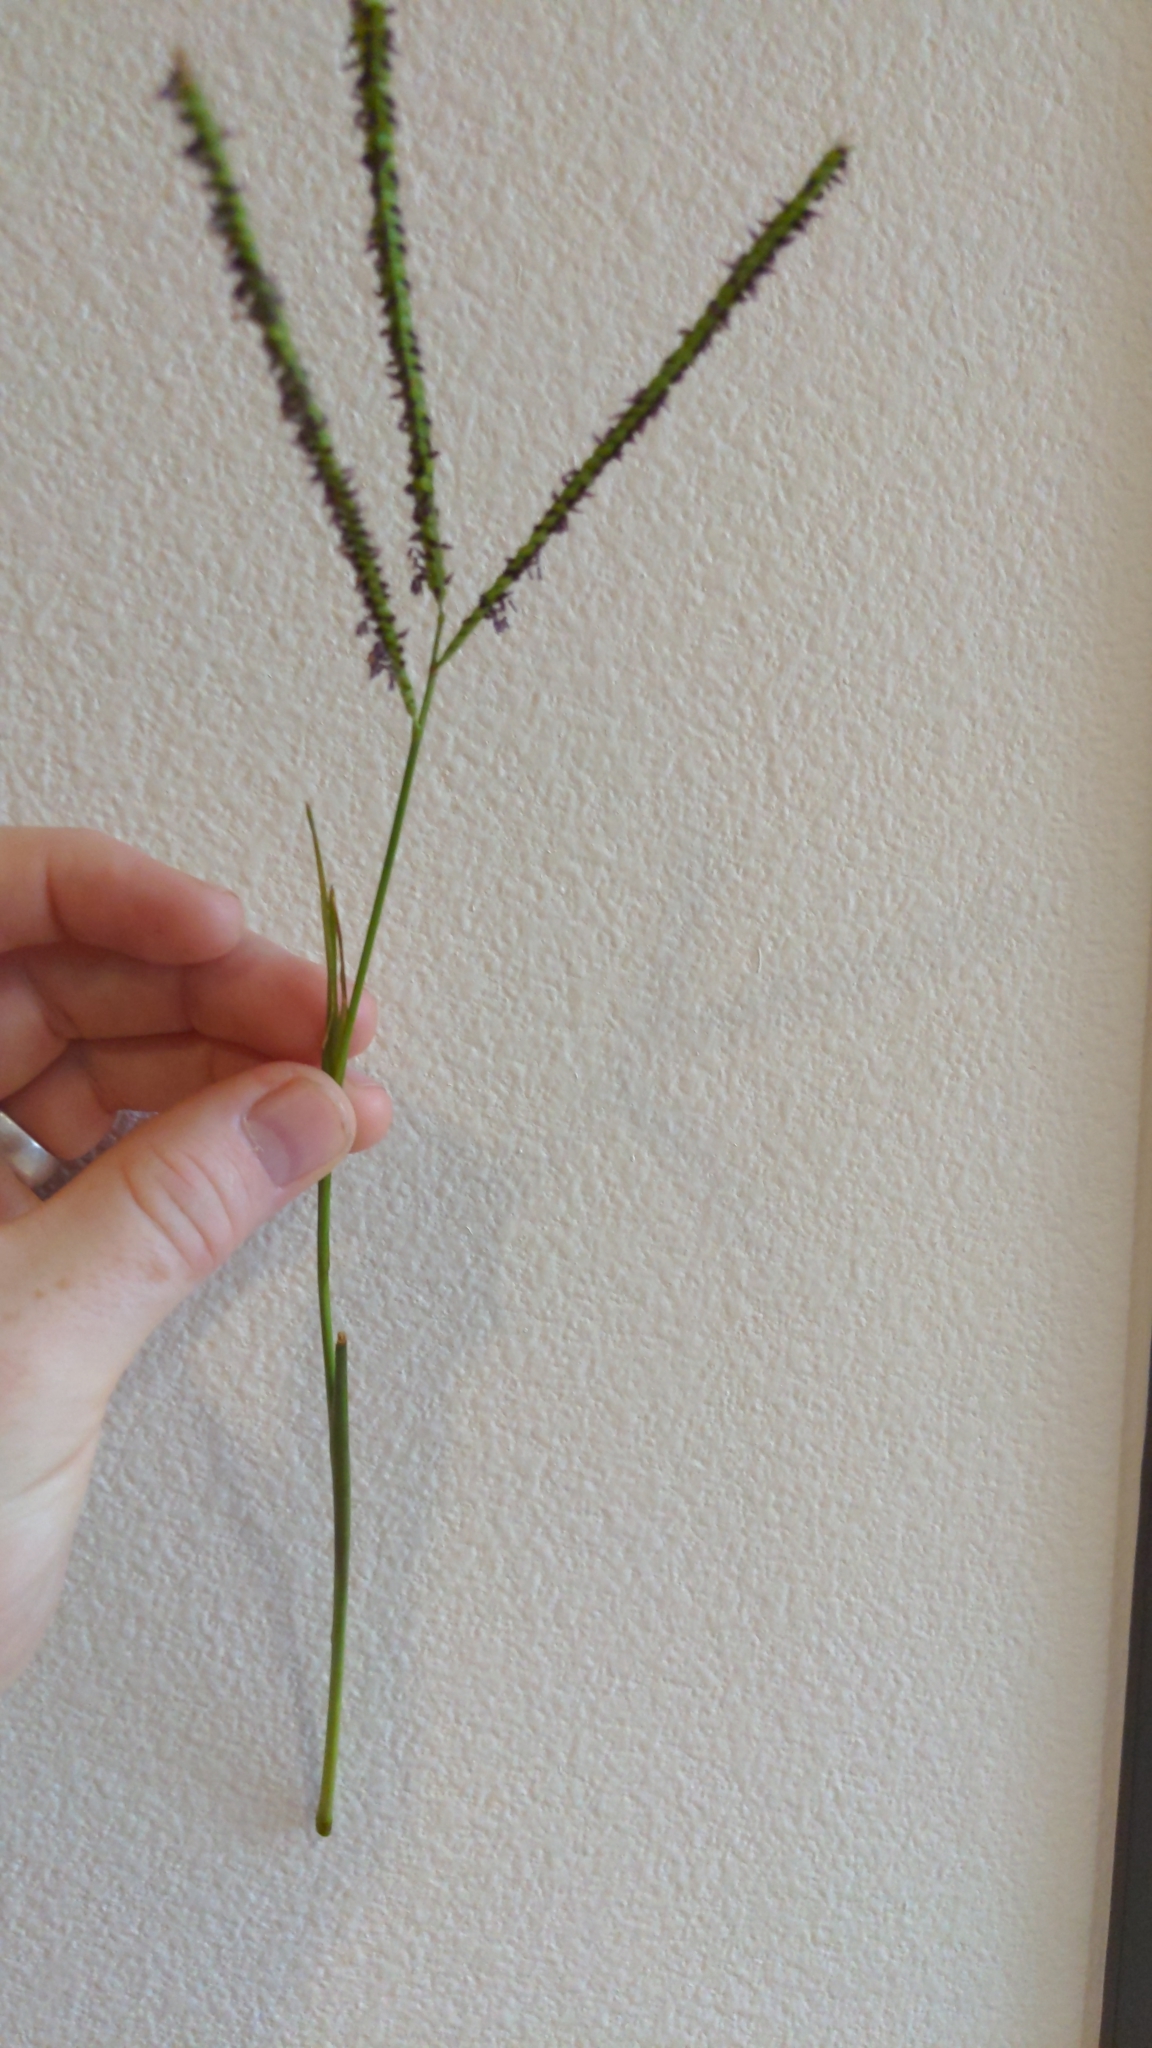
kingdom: Plantae
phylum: Tracheophyta
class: Liliopsida
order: Poales
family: Poaceae
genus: Paspalum
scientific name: Paspalum notatum
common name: Bahiagrass
